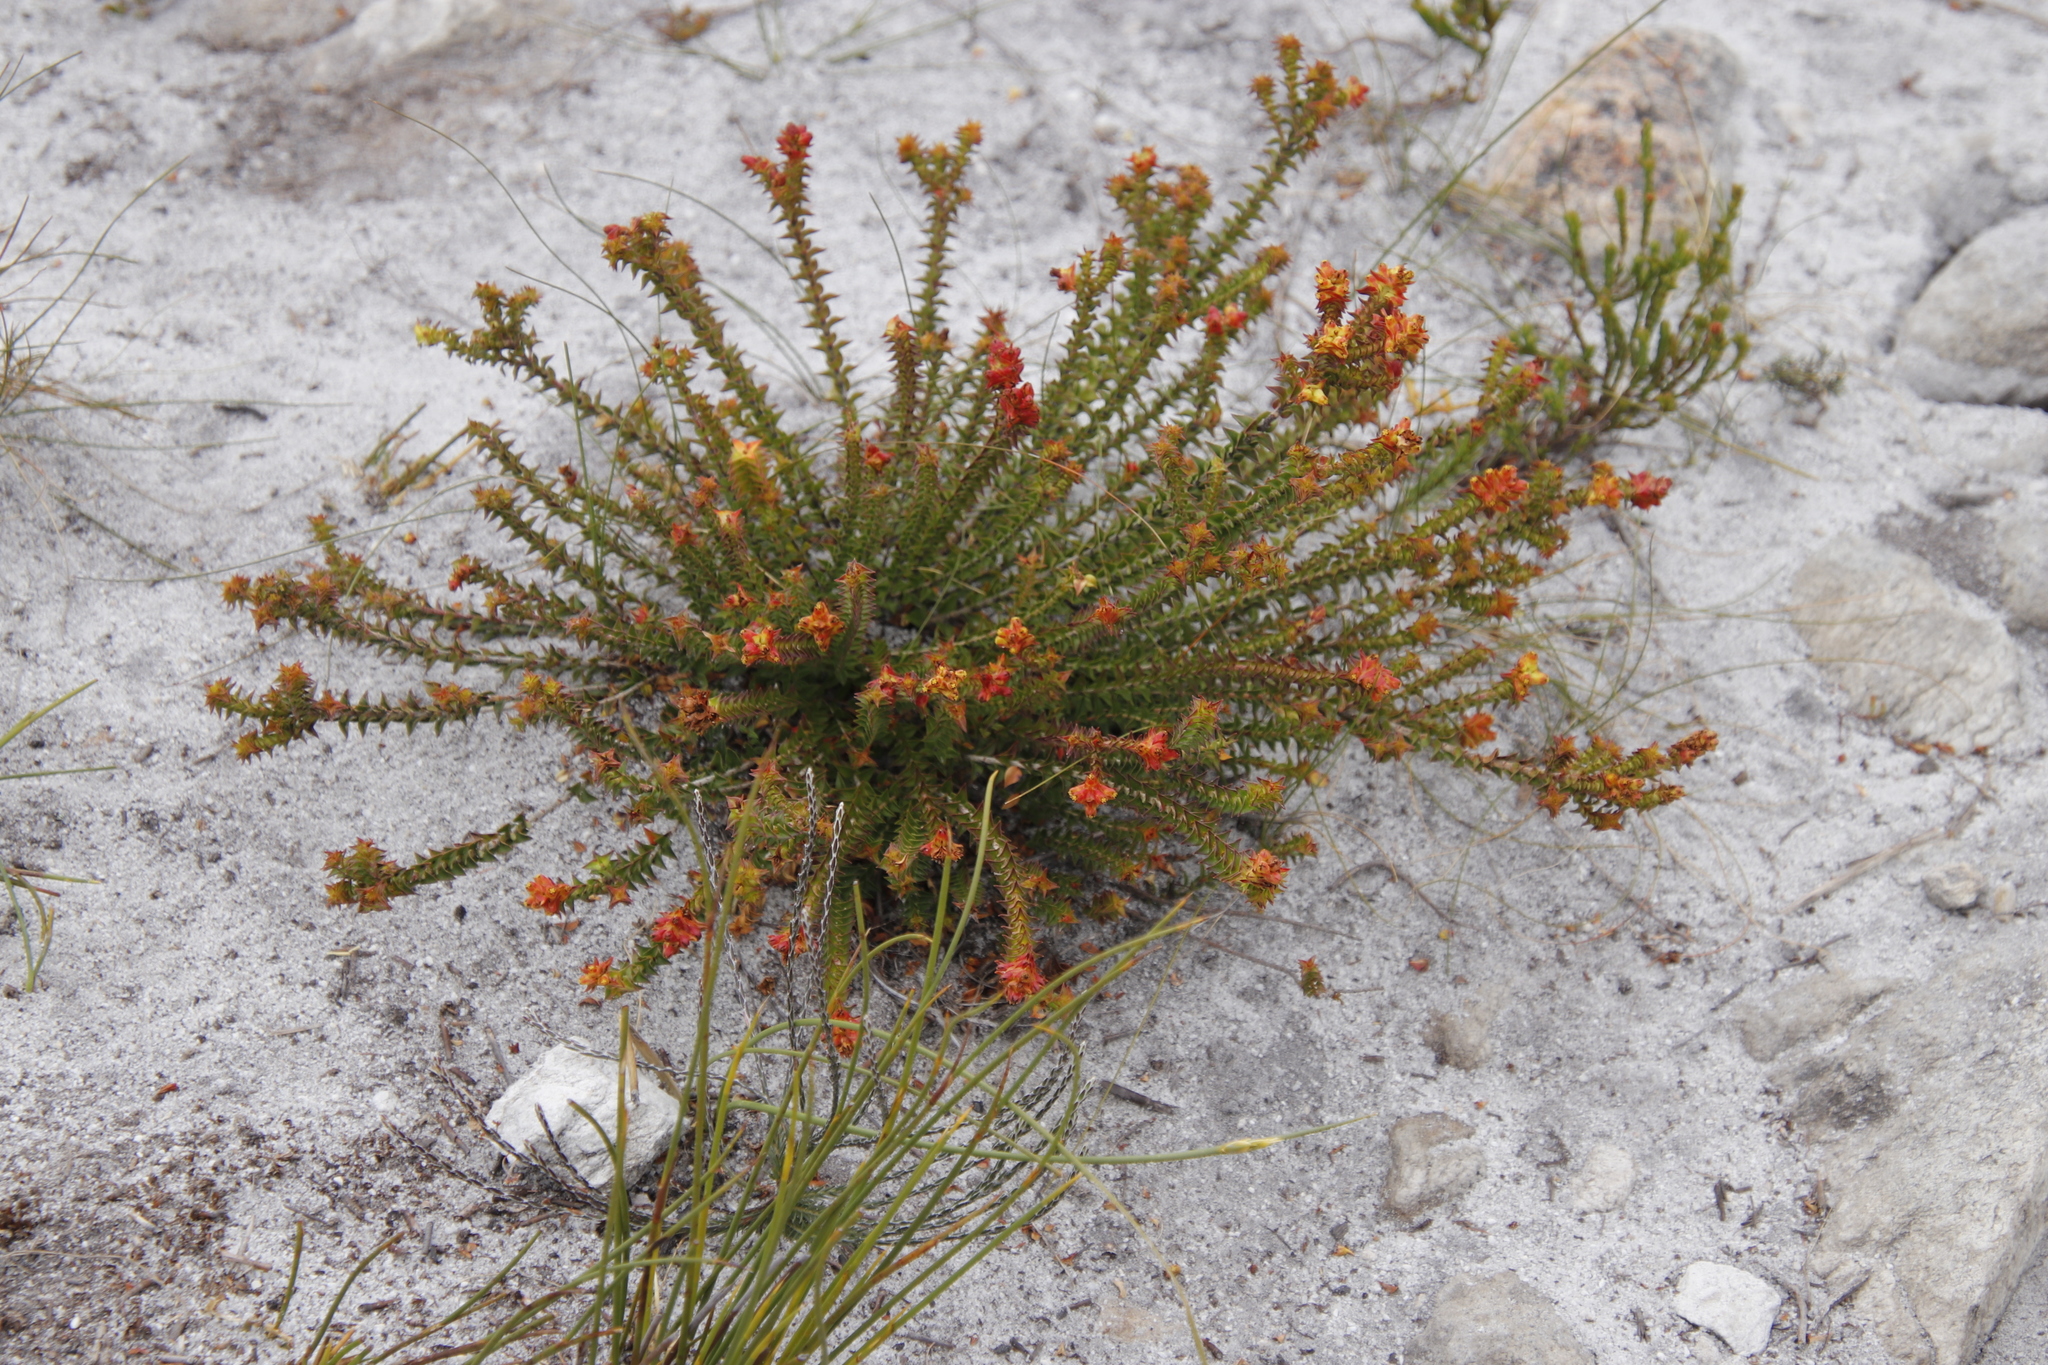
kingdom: Plantae
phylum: Tracheophyta
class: Magnoliopsida
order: Myrtales
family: Penaeaceae
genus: Penaea
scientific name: Penaea mucronata
